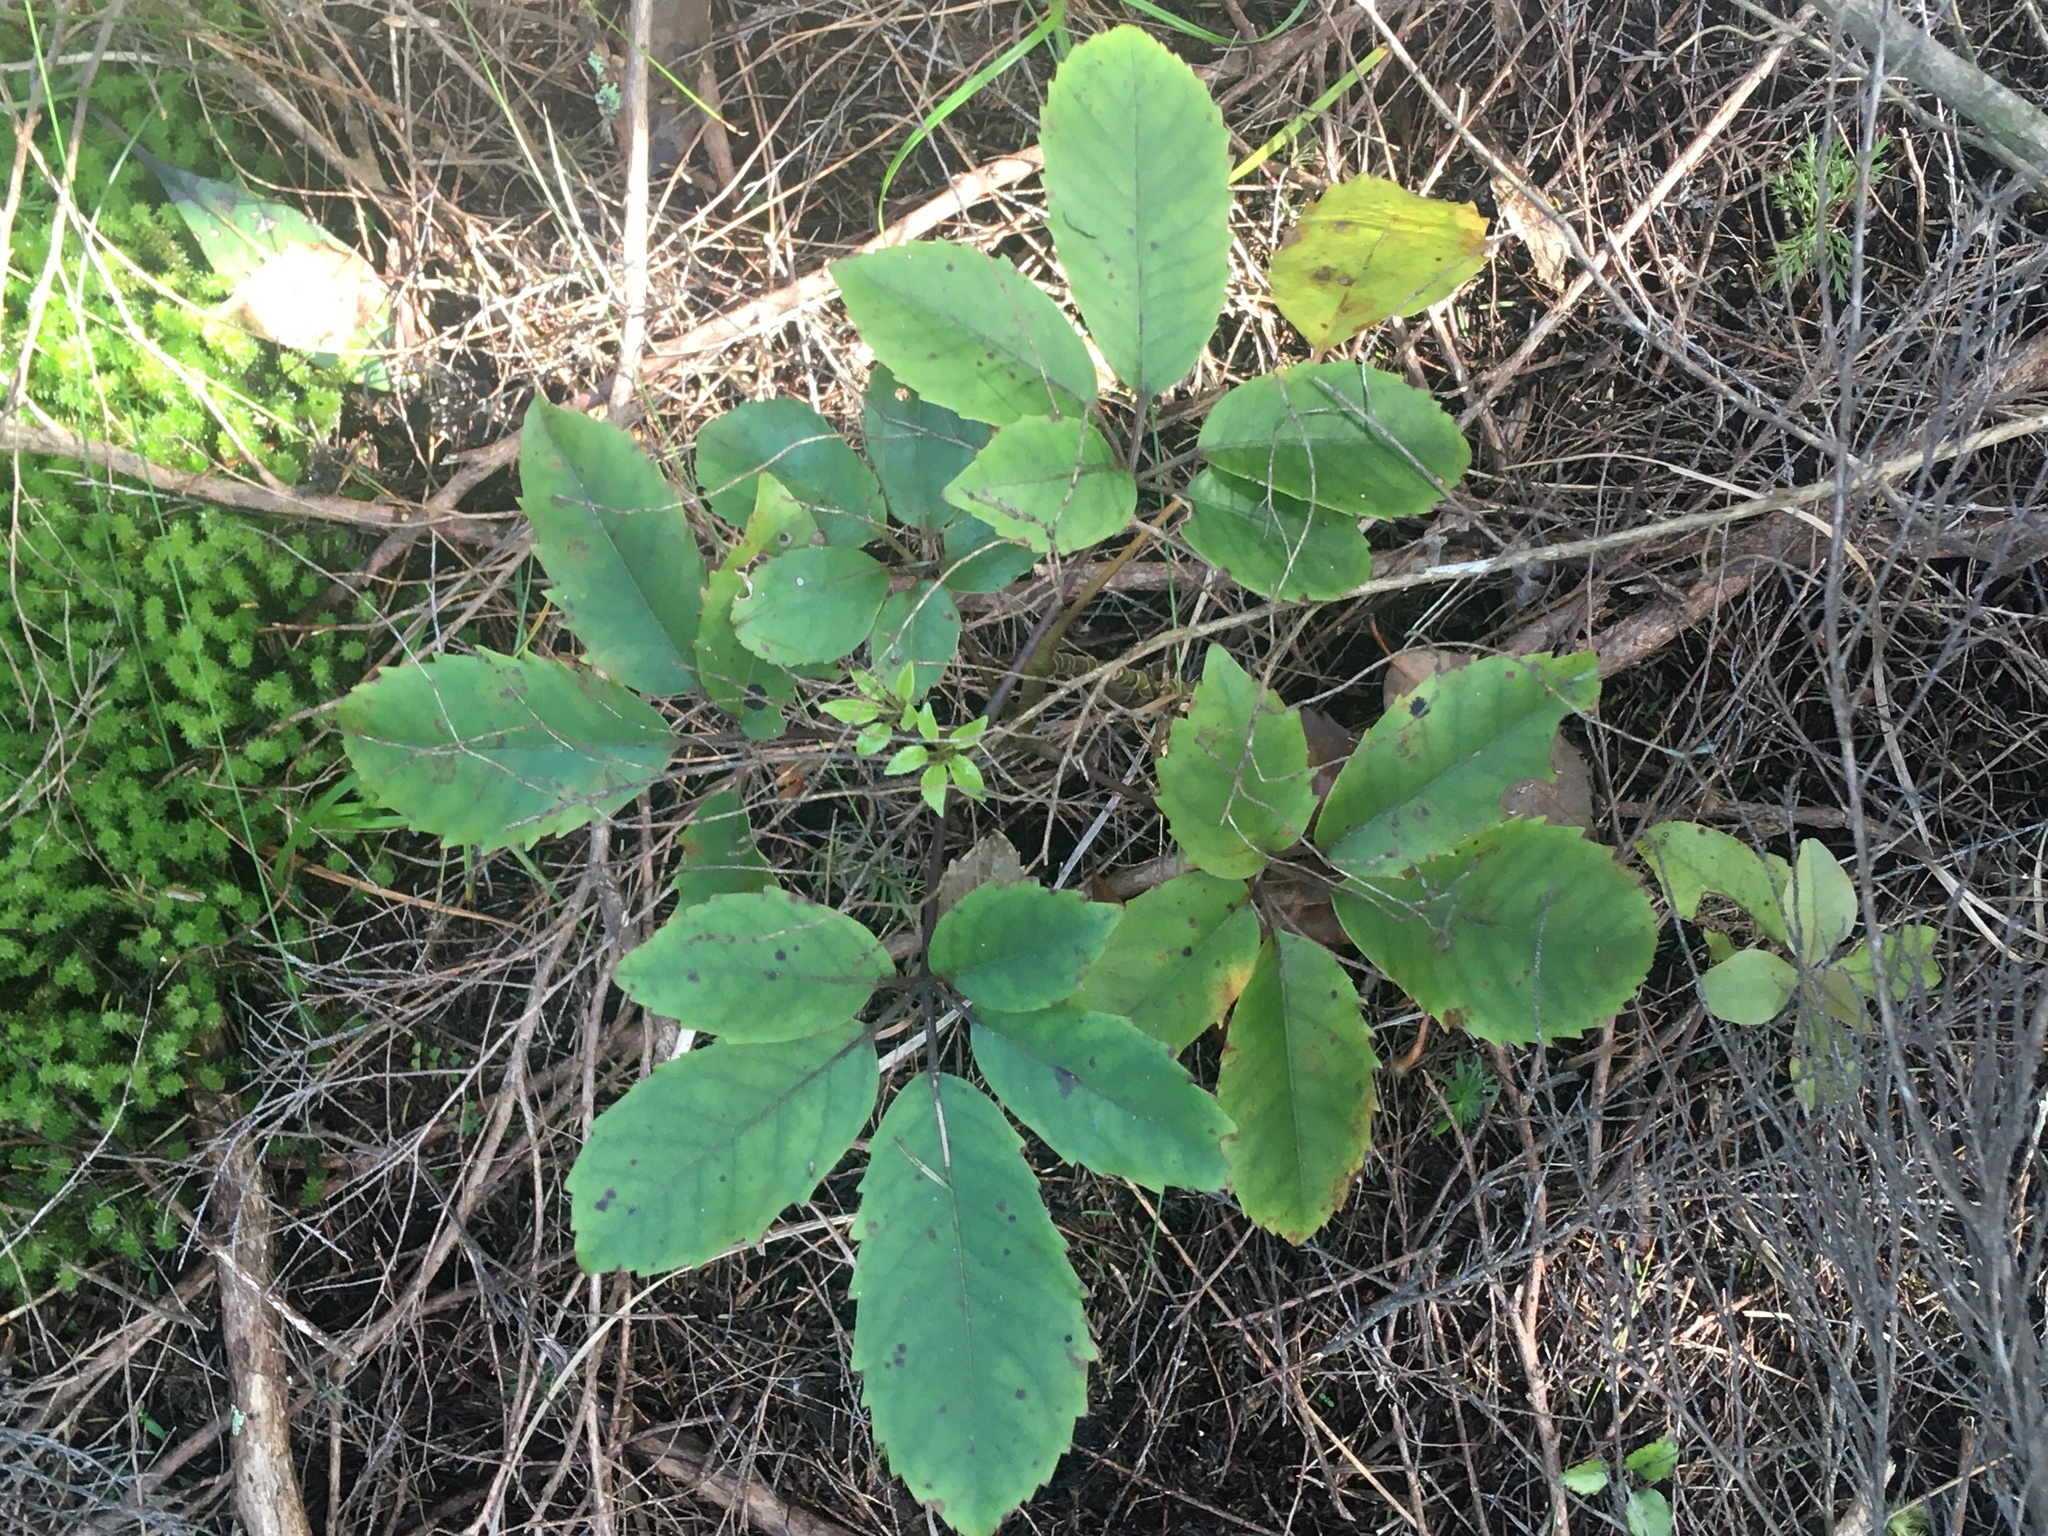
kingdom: Plantae
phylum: Tracheophyta
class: Magnoliopsida
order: Apiales
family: Araliaceae
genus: Neopanax
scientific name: Neopanax arboreus
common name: Five-fingers
